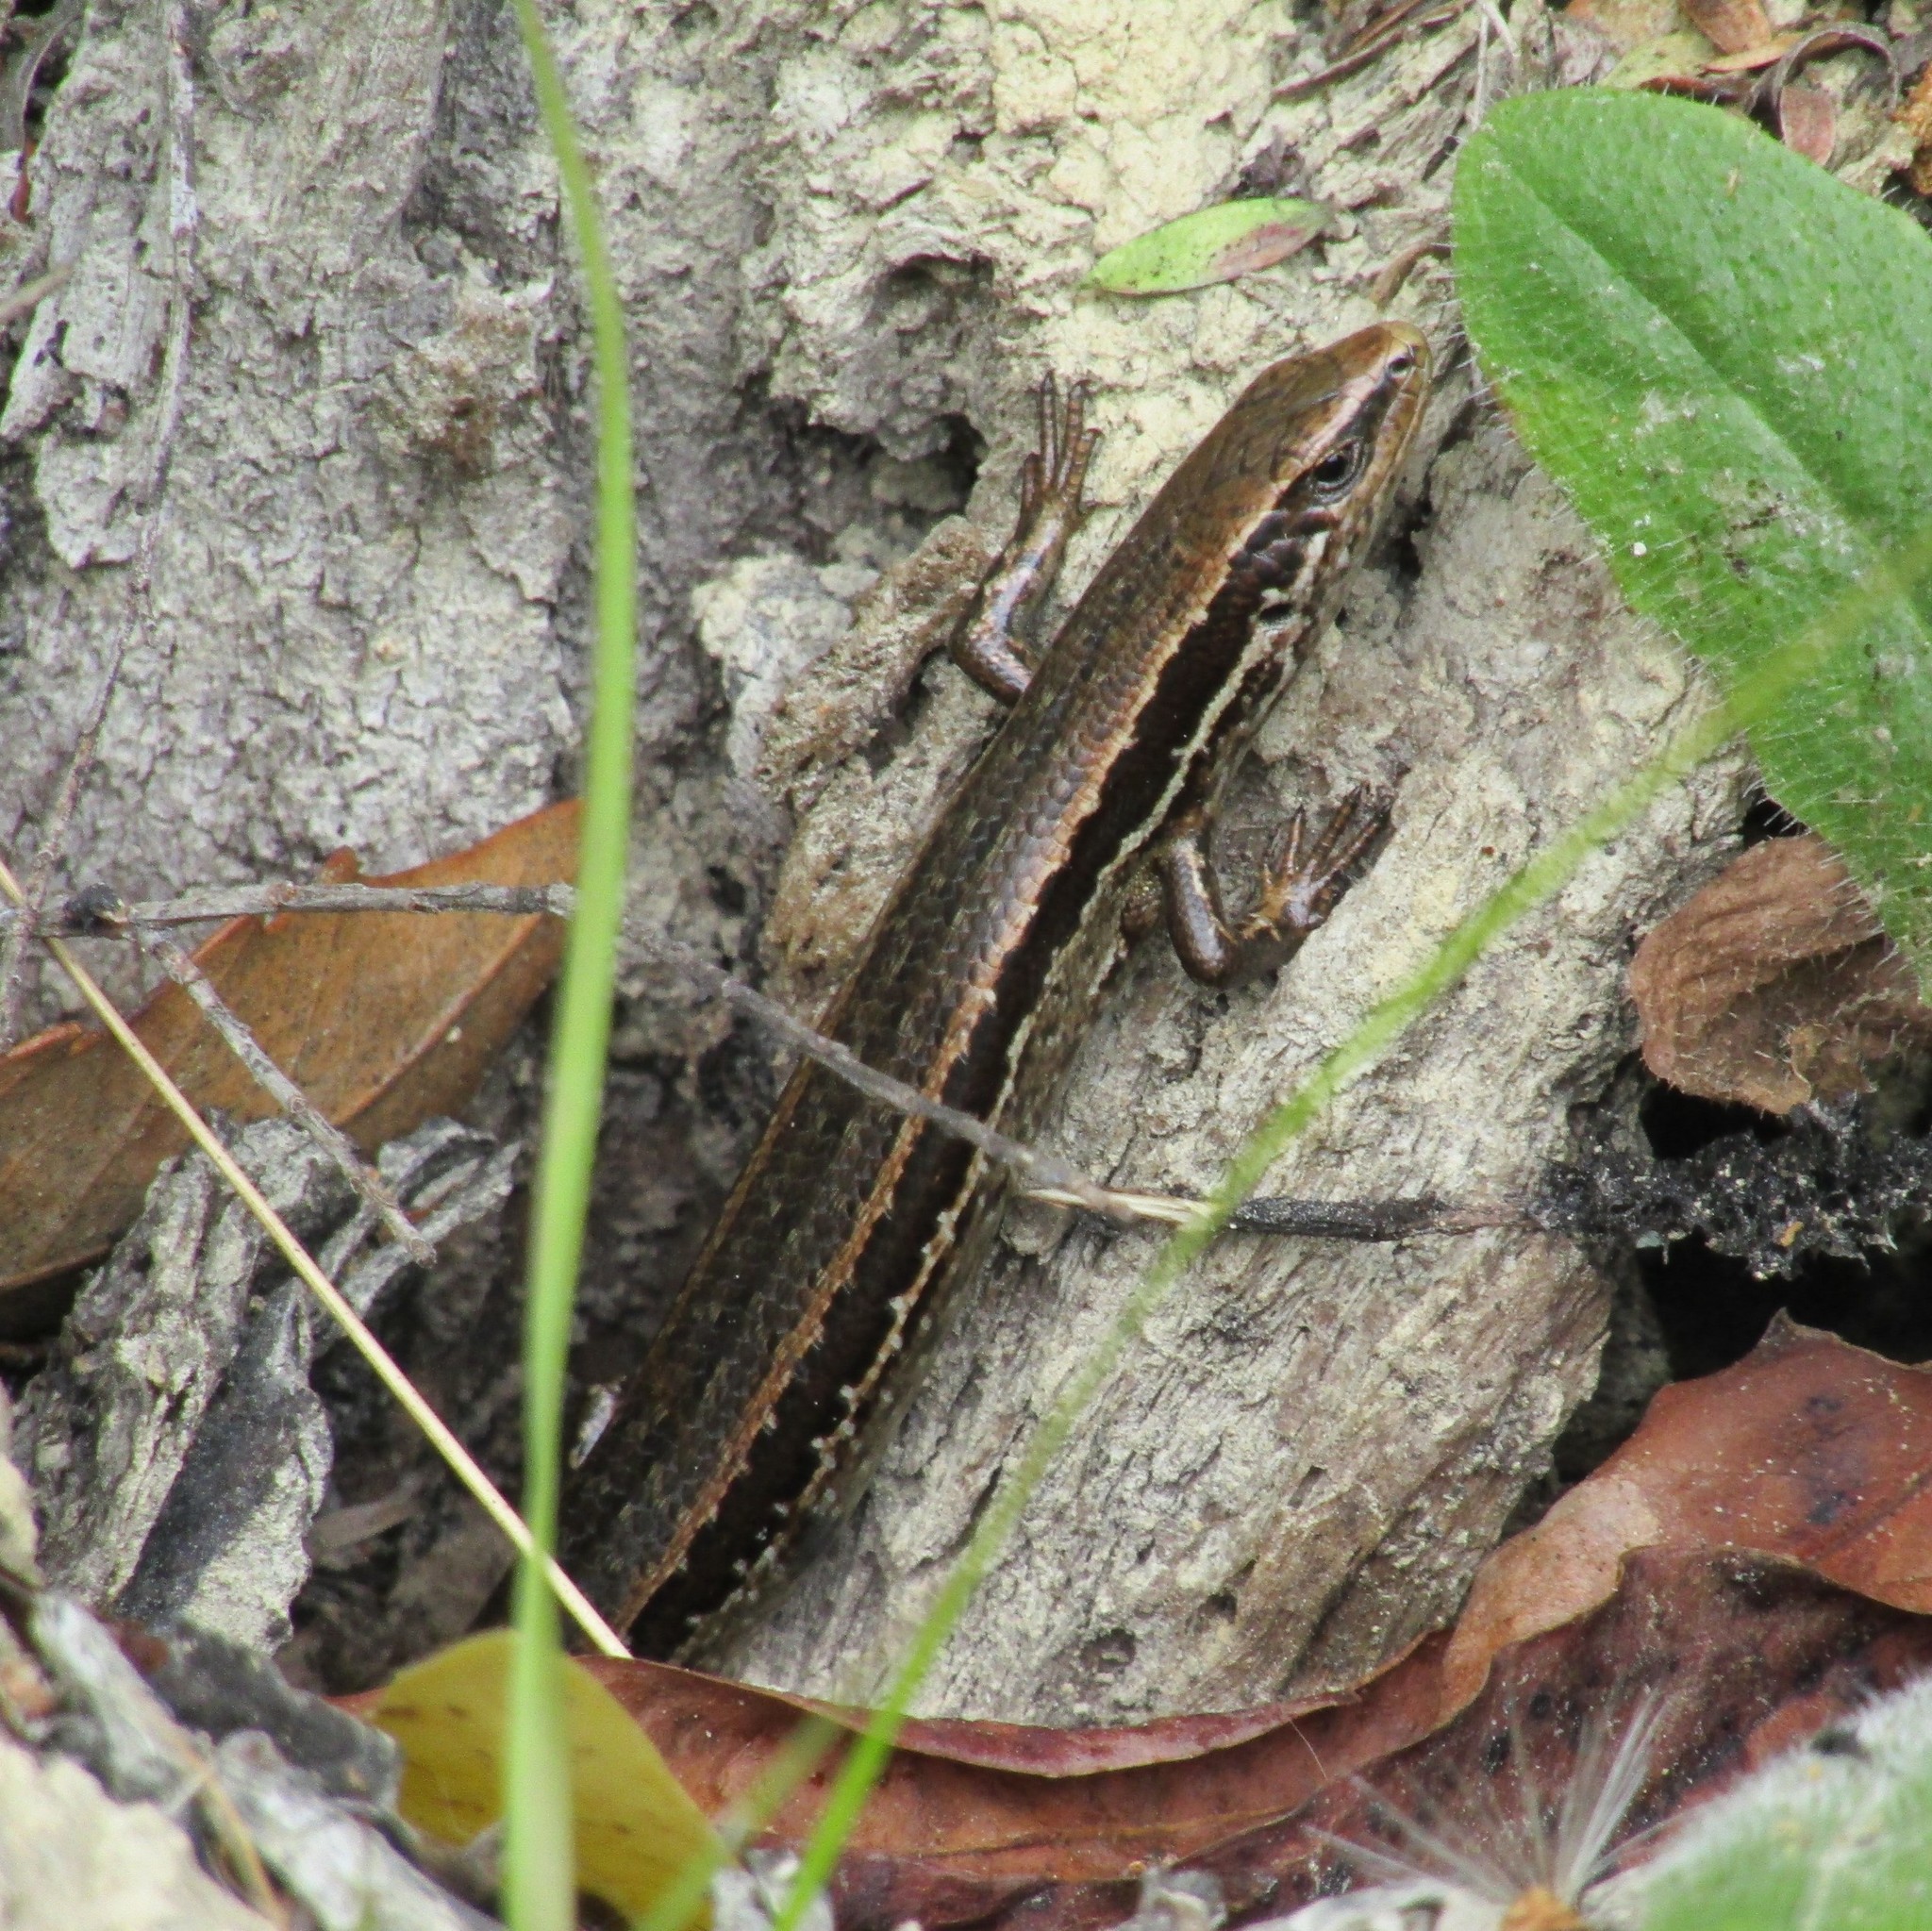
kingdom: Animalia
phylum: Chordata
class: Squamata
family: Scincidae
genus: Oligosoma
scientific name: Oligosoma polychroma
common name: Common new zealand skink
